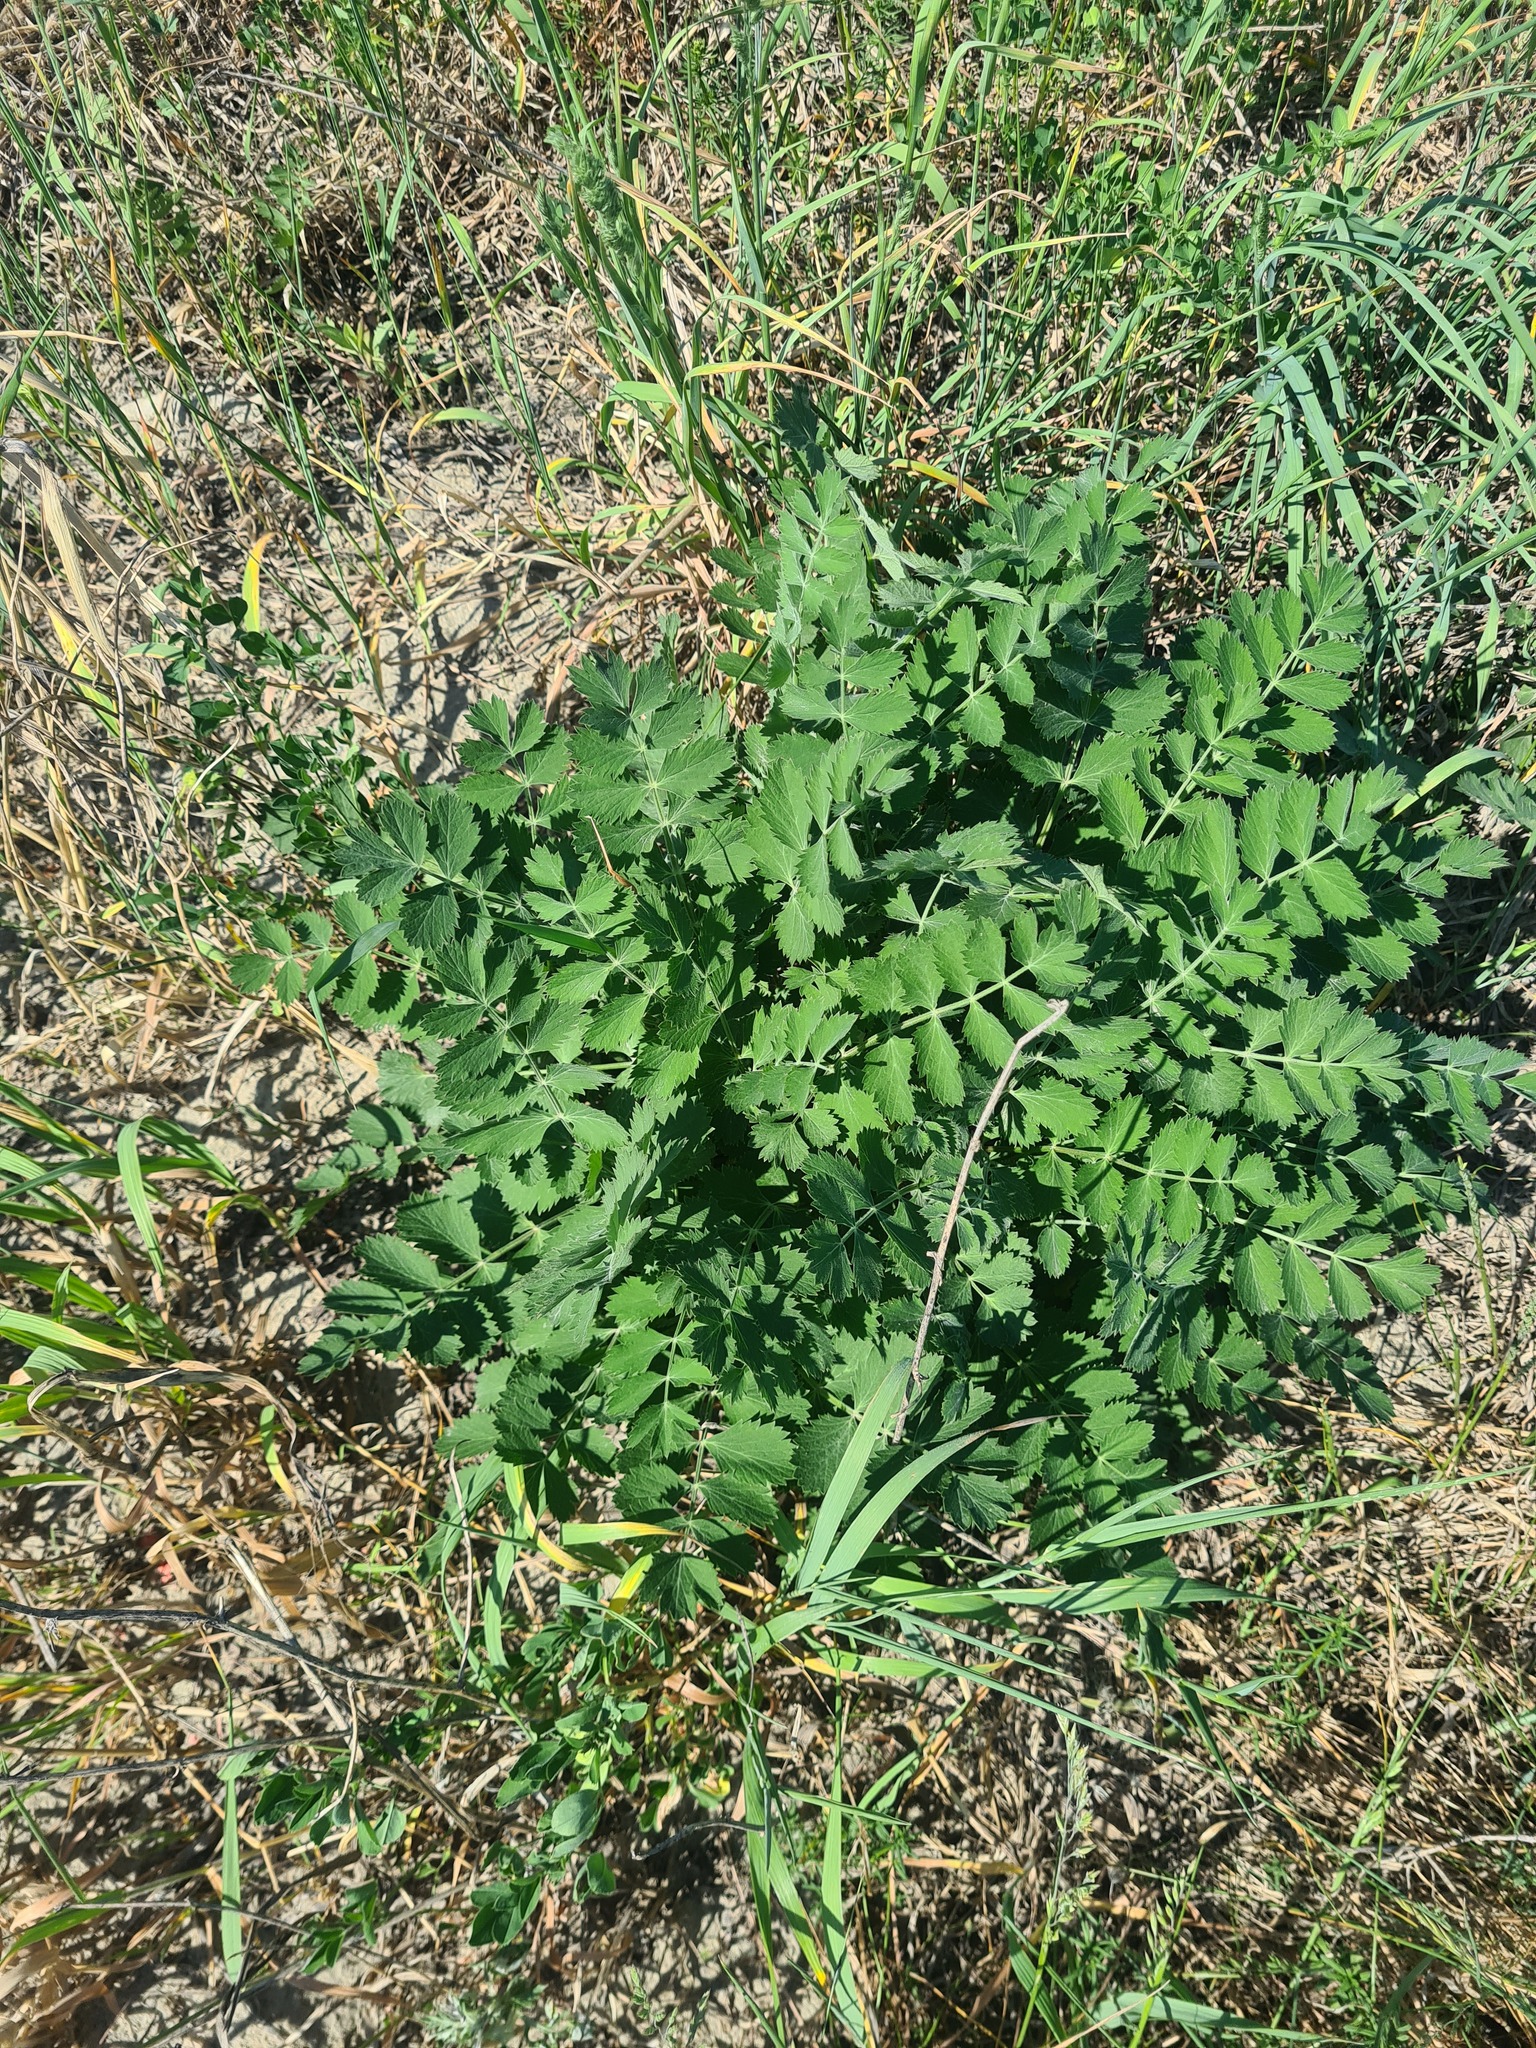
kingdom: Plantae
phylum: Tracheophyta
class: Magnoliopsida
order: Apiales
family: Apiaceae
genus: Pimpinella
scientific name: Pimpinella saxifraga
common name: Burnet-saxifrage
